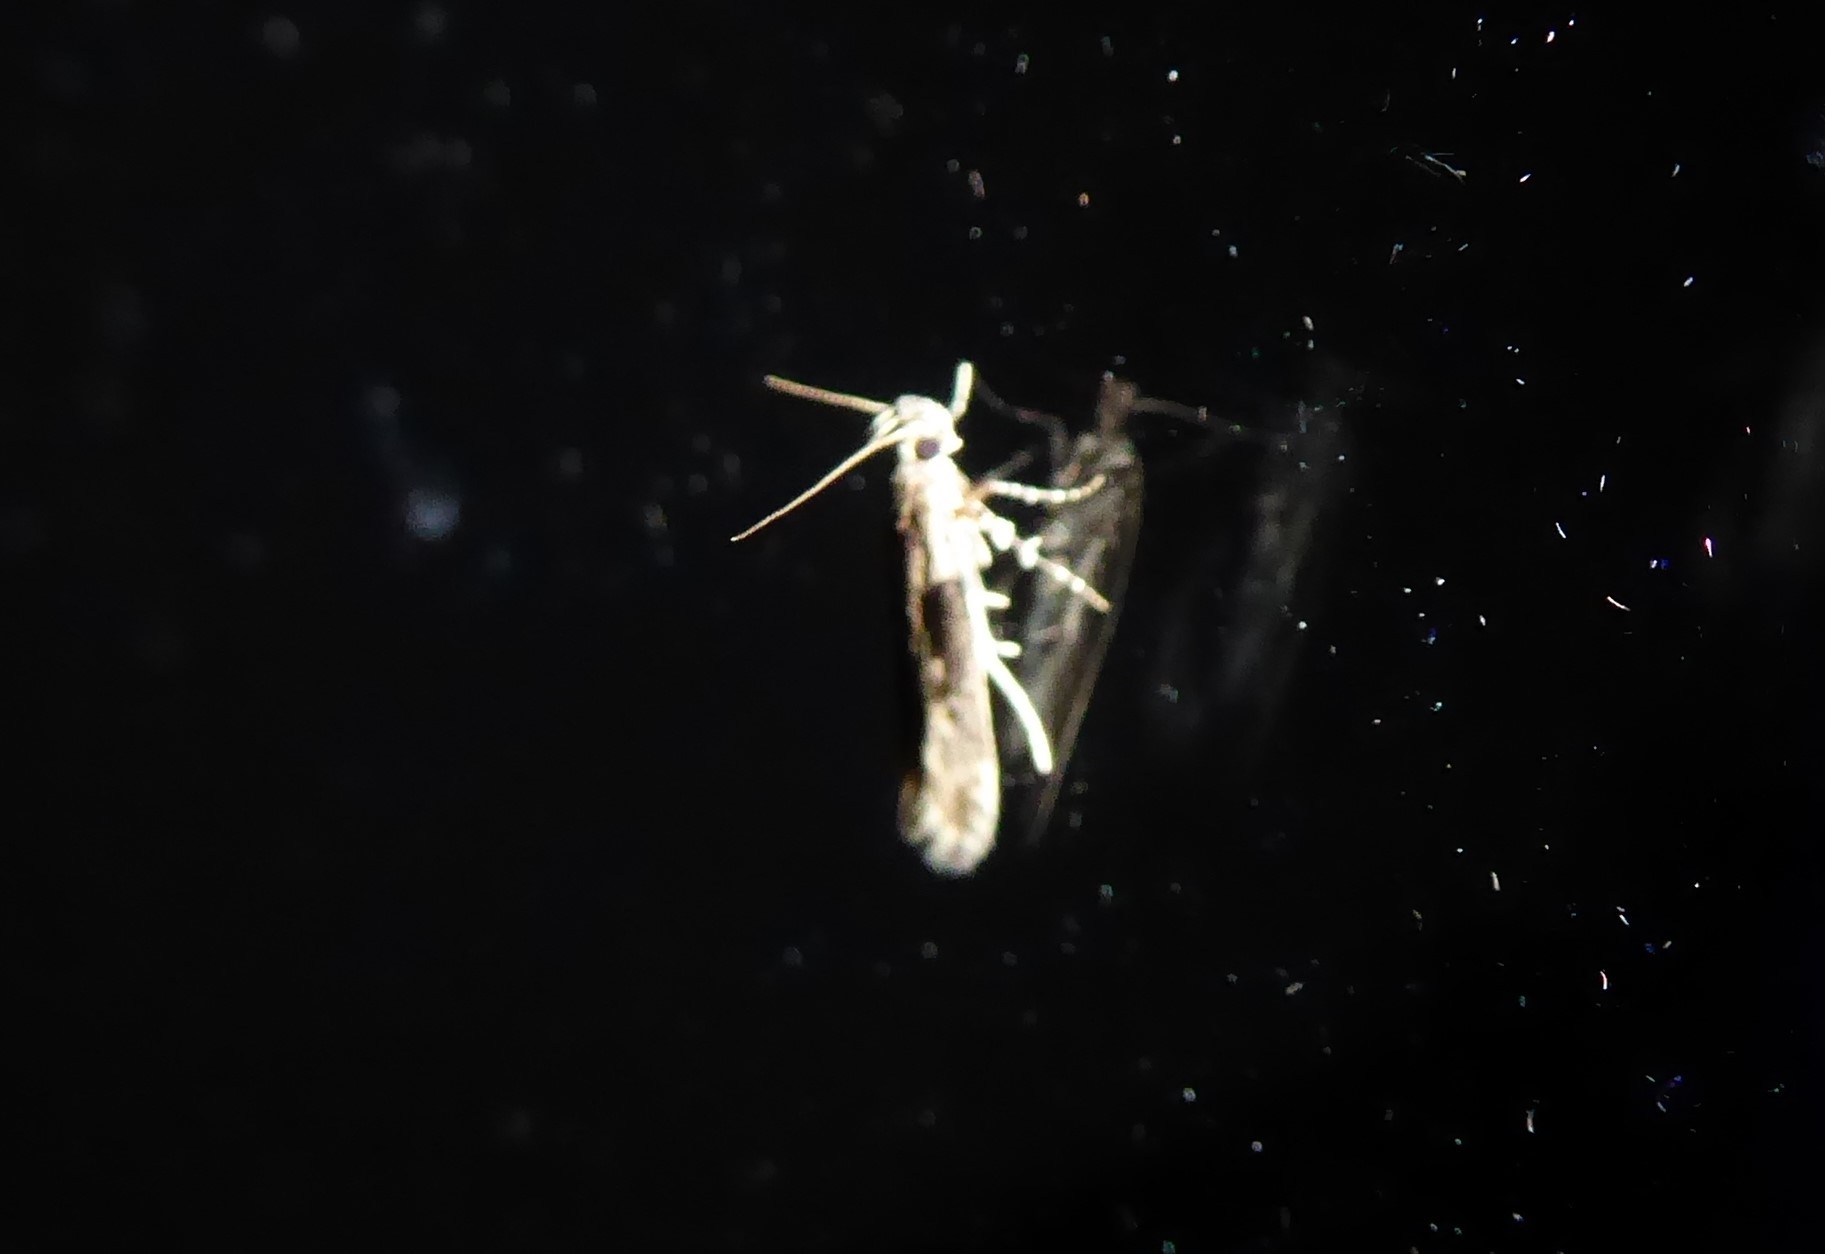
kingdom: Animalia
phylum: Arthropoda
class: Insecta
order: Lepidoptera
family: Gelechiidae
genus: Symmetrischema
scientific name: Symmetrischema tangolias
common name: Moth
